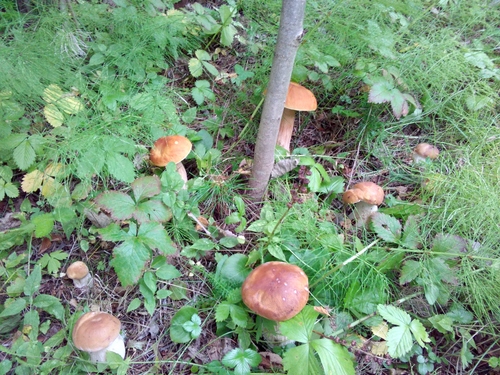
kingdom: Fungi
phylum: Basidiomycota
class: Agaricomycetes
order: Boletales
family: Boletaceae
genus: Boletus
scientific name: Boletus edulis
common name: Cep
